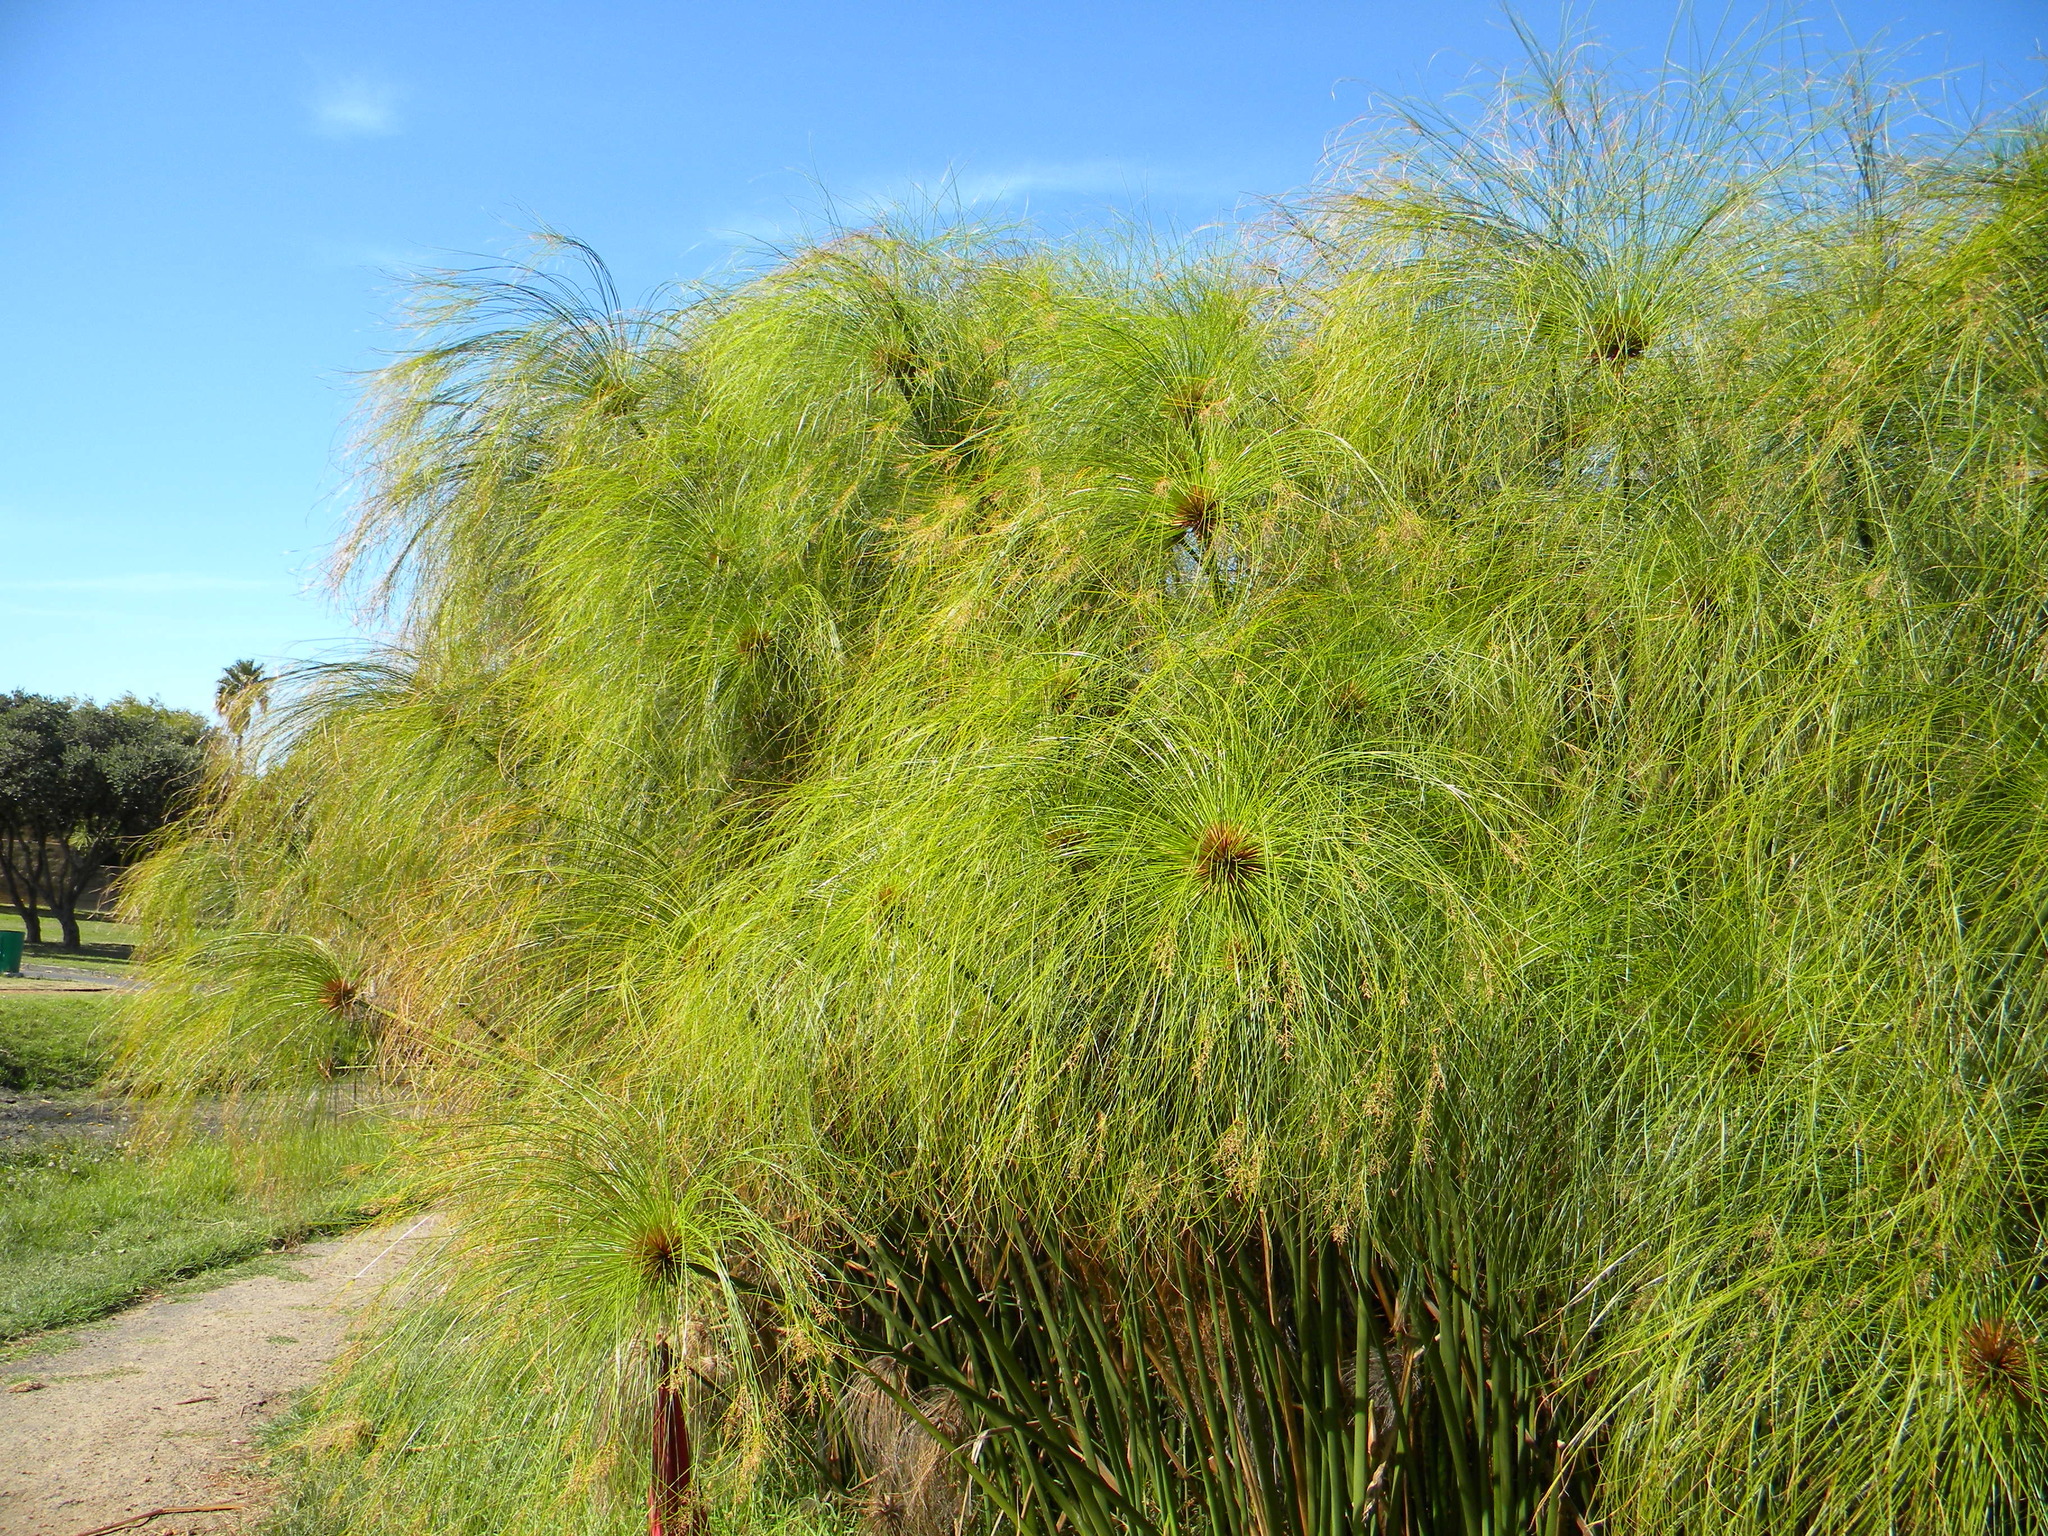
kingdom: Plantae
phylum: Tracheophyta
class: Liliopsida
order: Poales
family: Cyperaceae
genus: Cyperus
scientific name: Cyperus papyrus
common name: Papyrus
